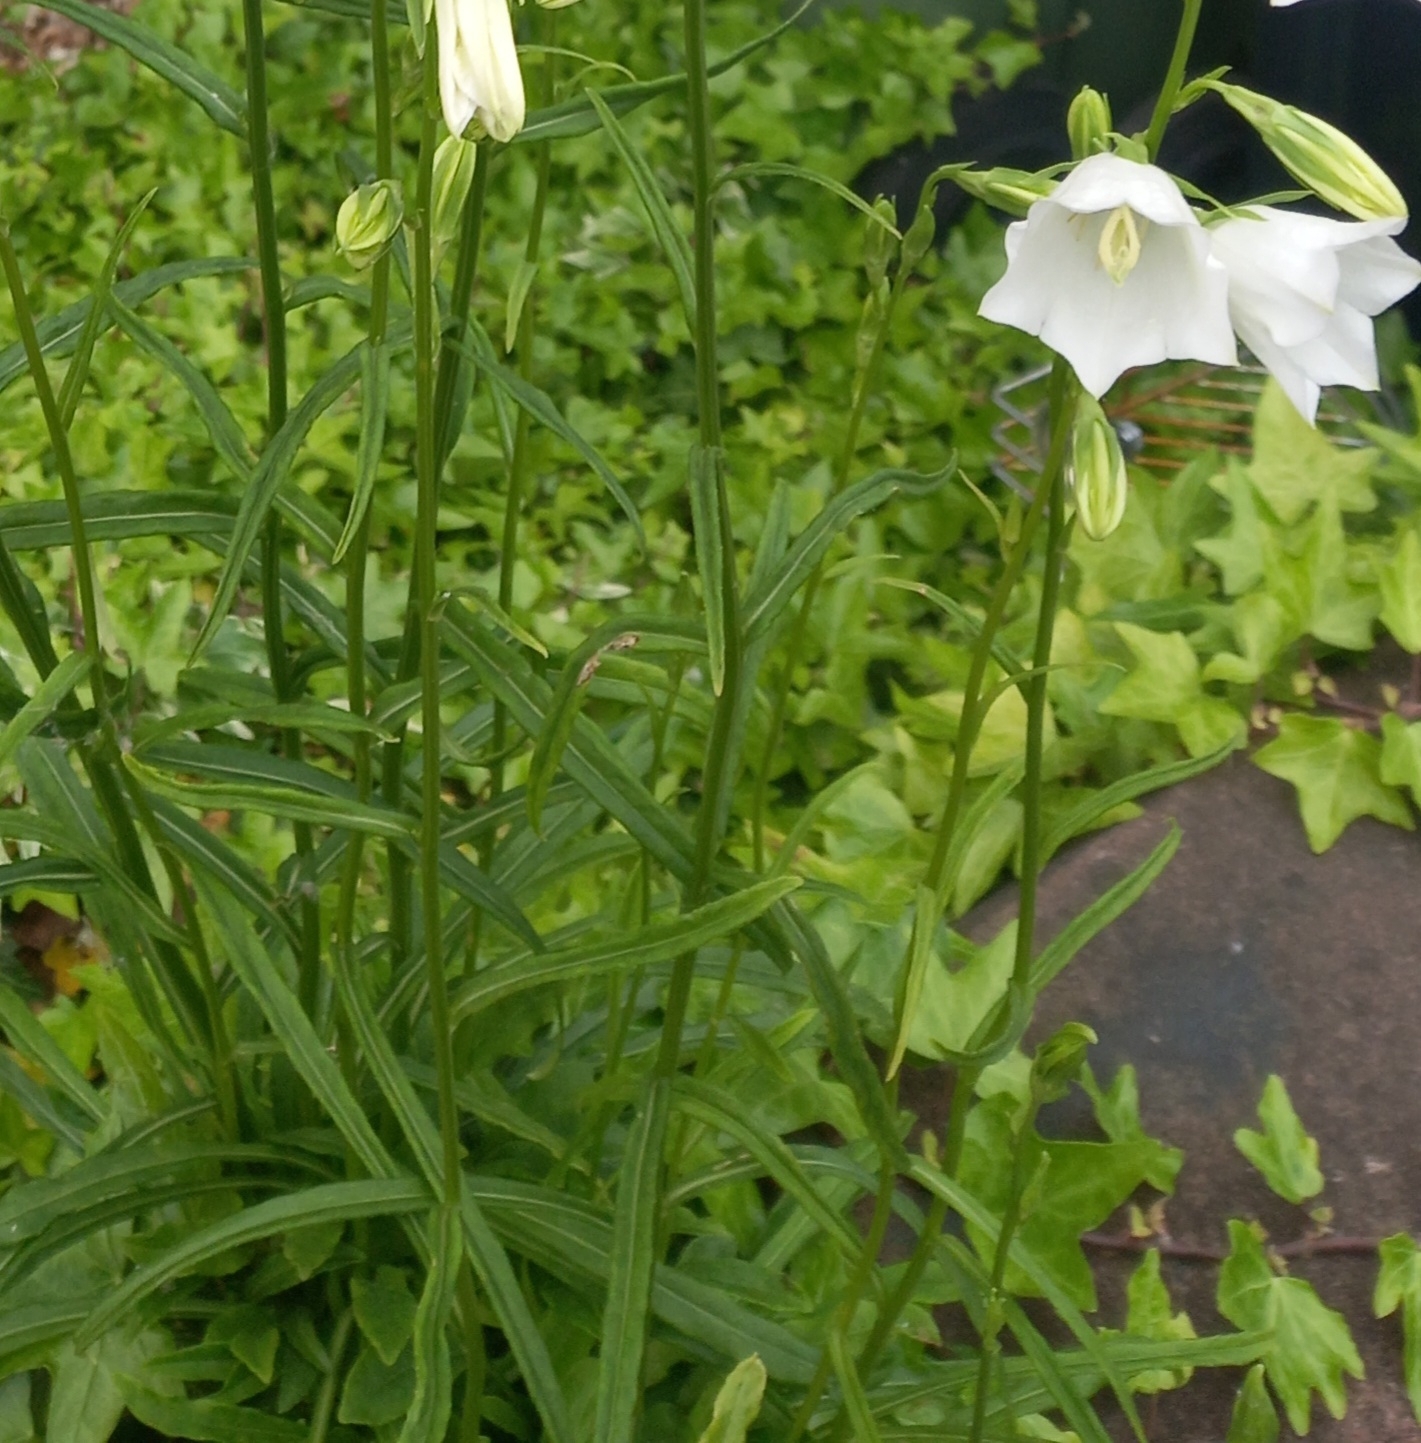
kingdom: Plantae
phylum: Tracheophyta
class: Magnoliopsida
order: Asterales
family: Campanulaceae
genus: Campanula
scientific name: Campanula persicifolia
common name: Peach-leaved bellflower
